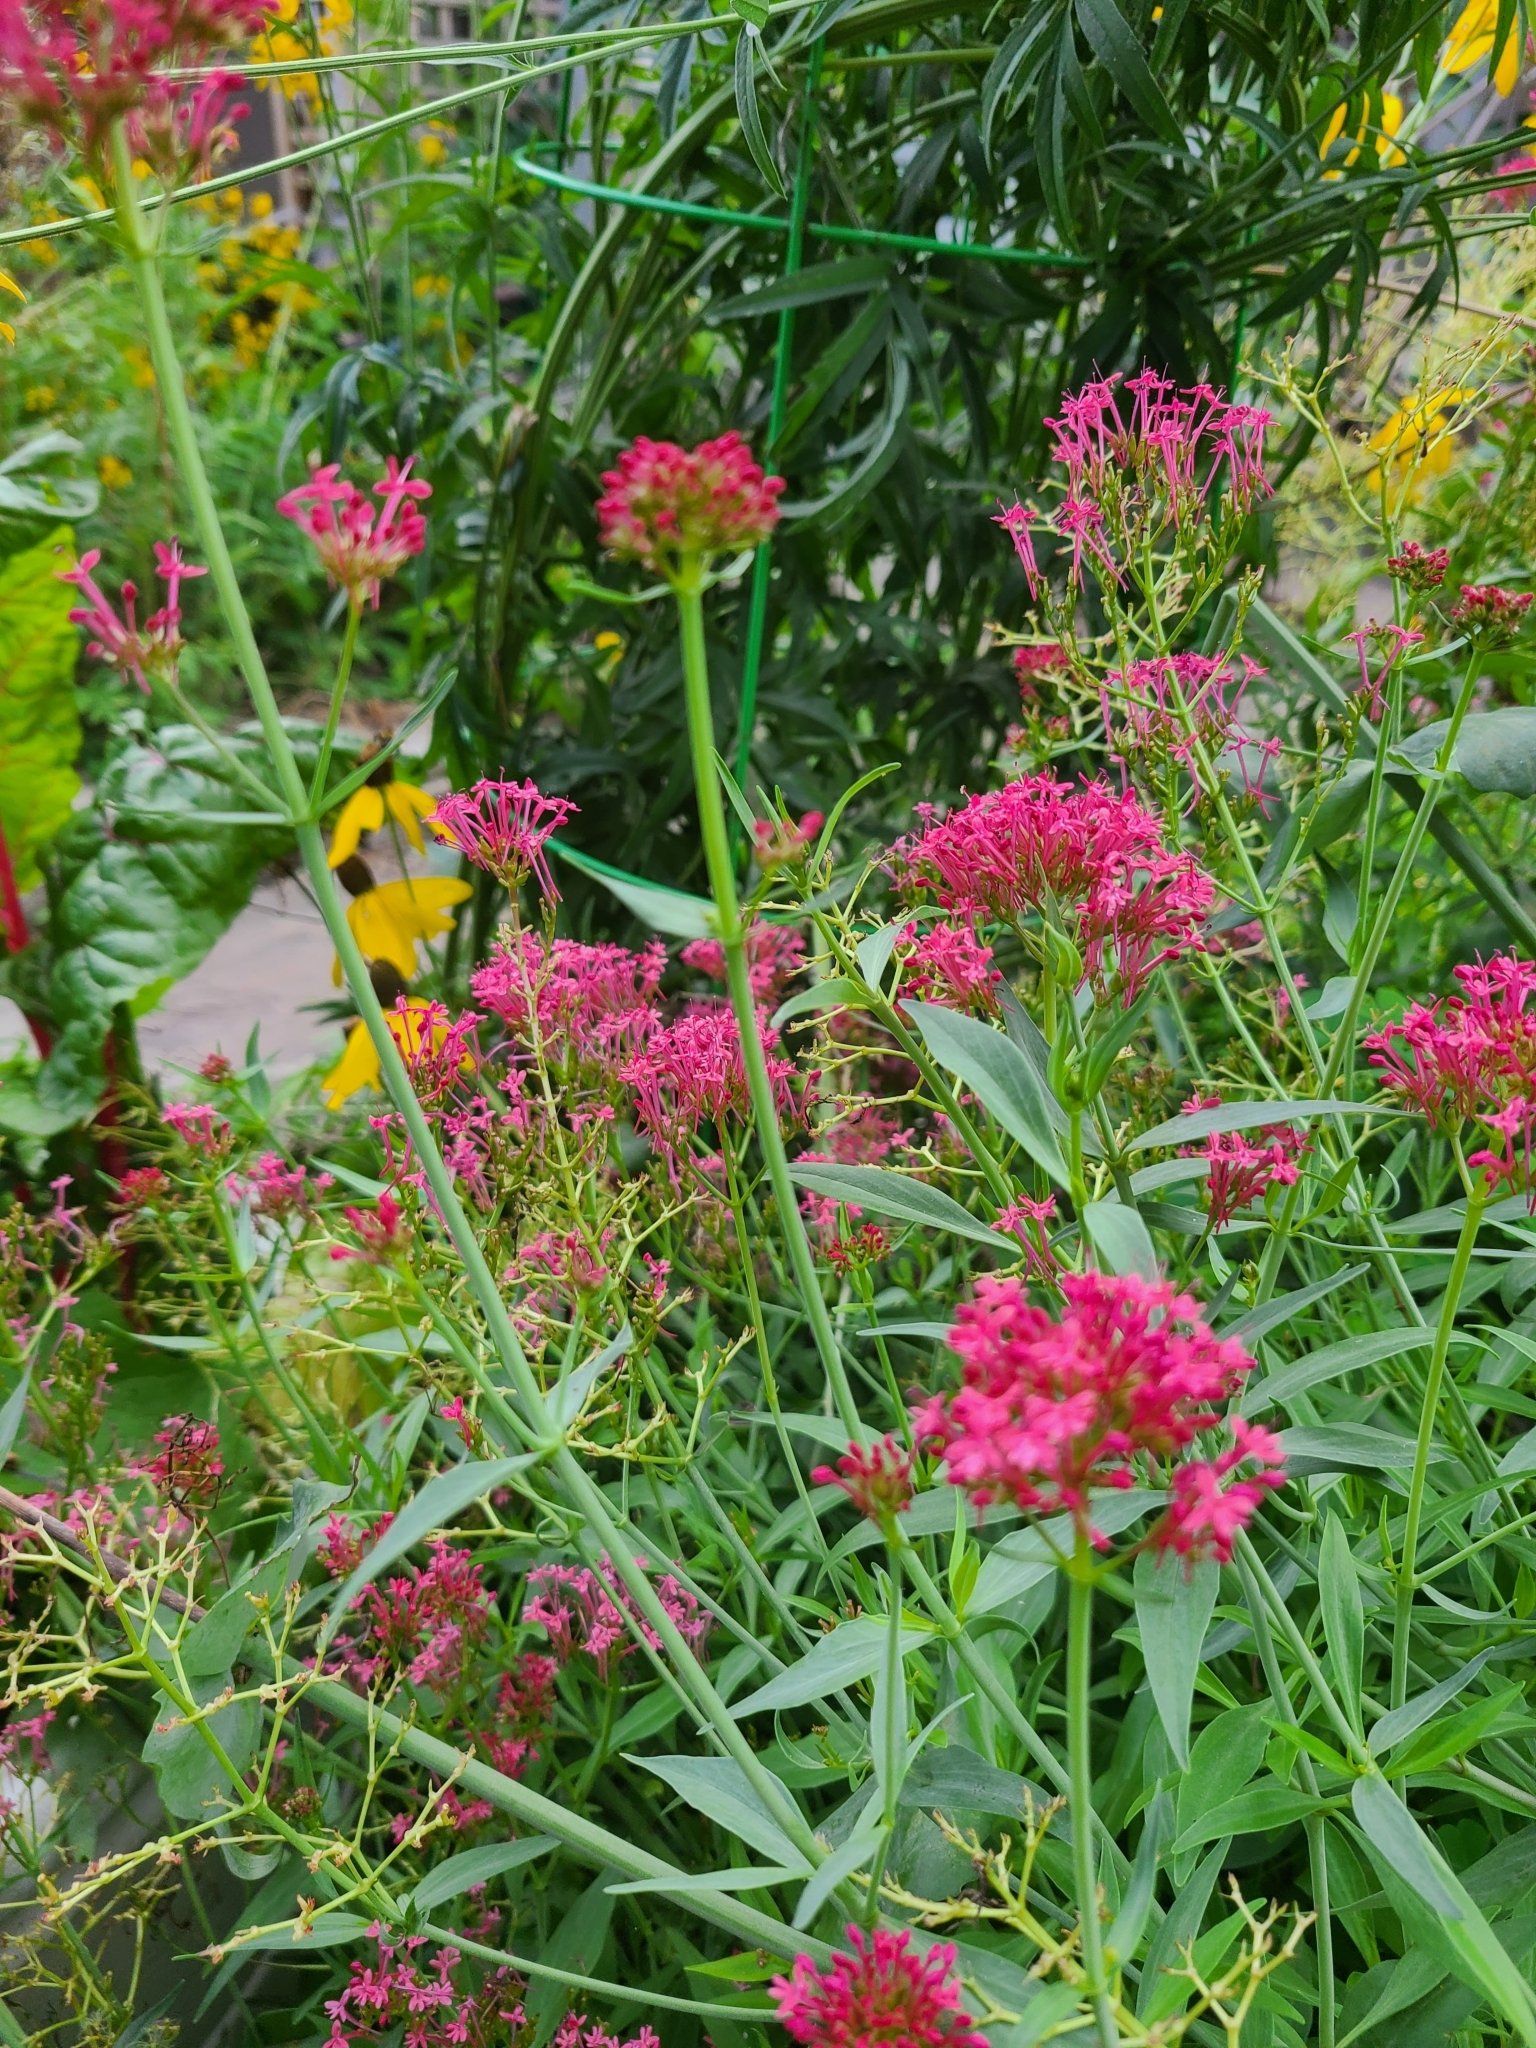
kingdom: Plantae
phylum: Tracheophyta
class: Magnoliopsida
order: Dipsacales
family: Caprifoliaceae
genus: Centranthus
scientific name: Centranthus ruber
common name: Red valerian
